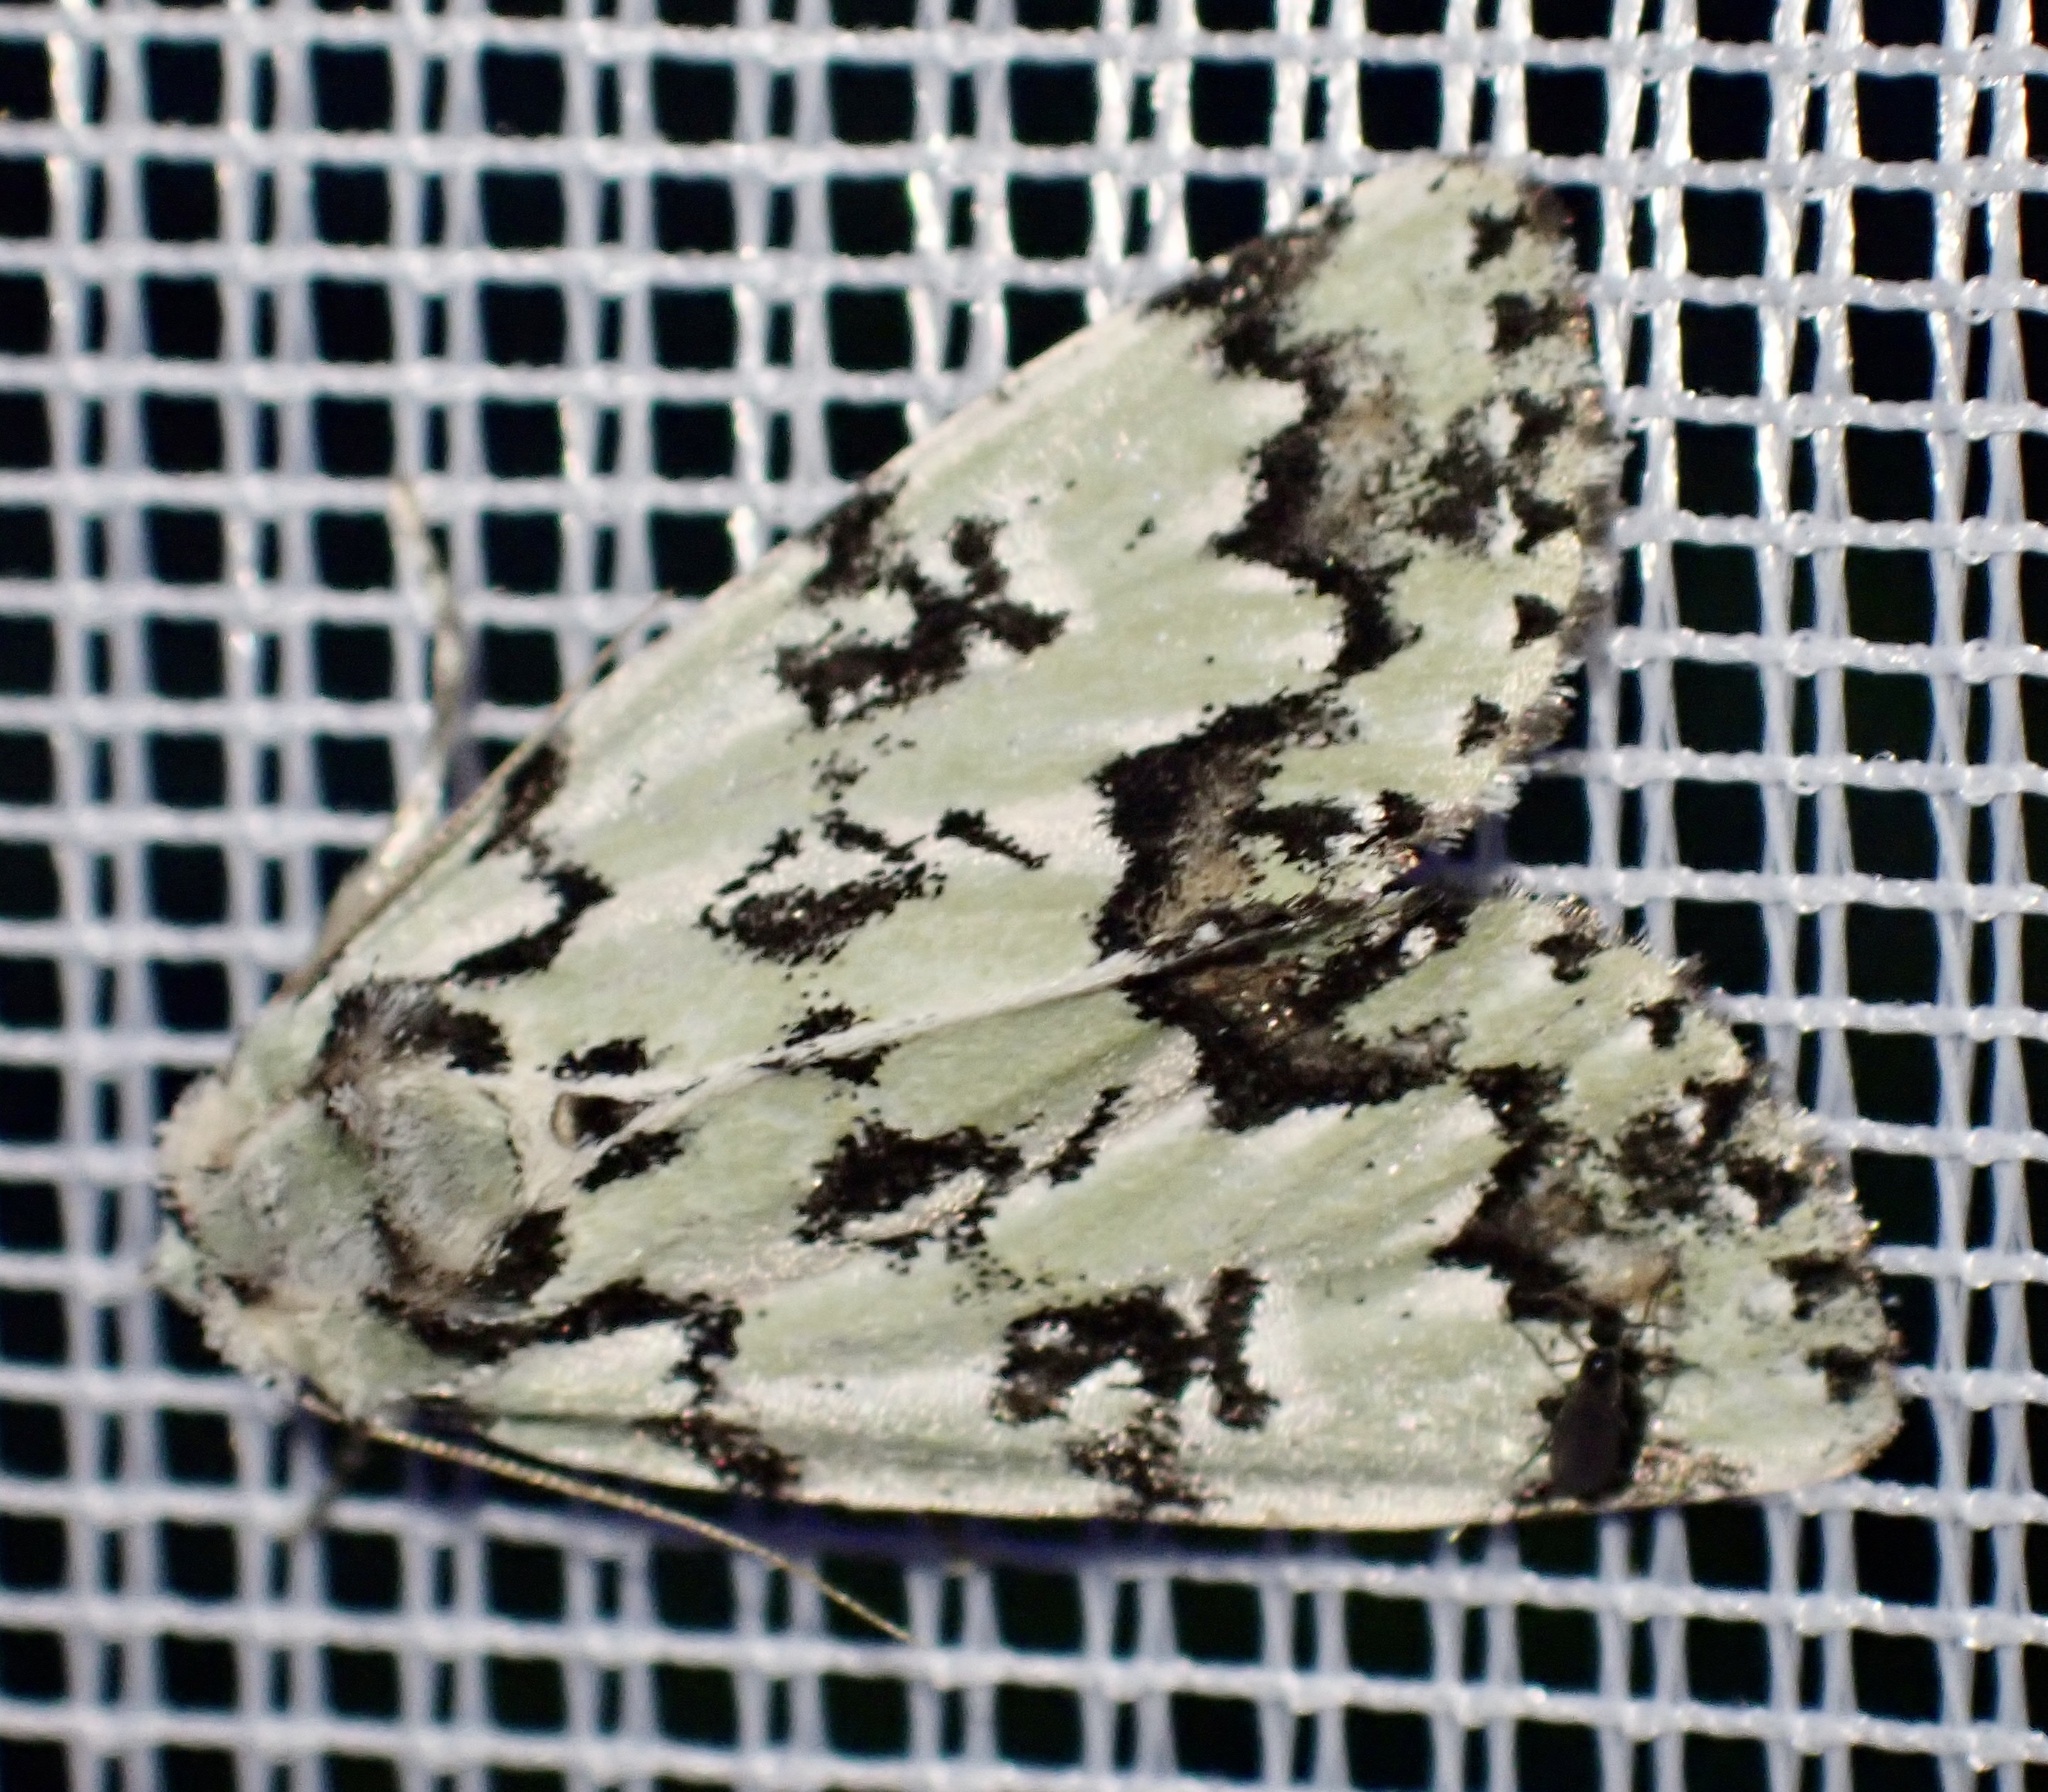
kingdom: Animalia
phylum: Arthropoda
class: Insecta
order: Lepidoptera
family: Noctuidae
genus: Moma
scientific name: Moma alpium
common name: Scarce merveille du jour
